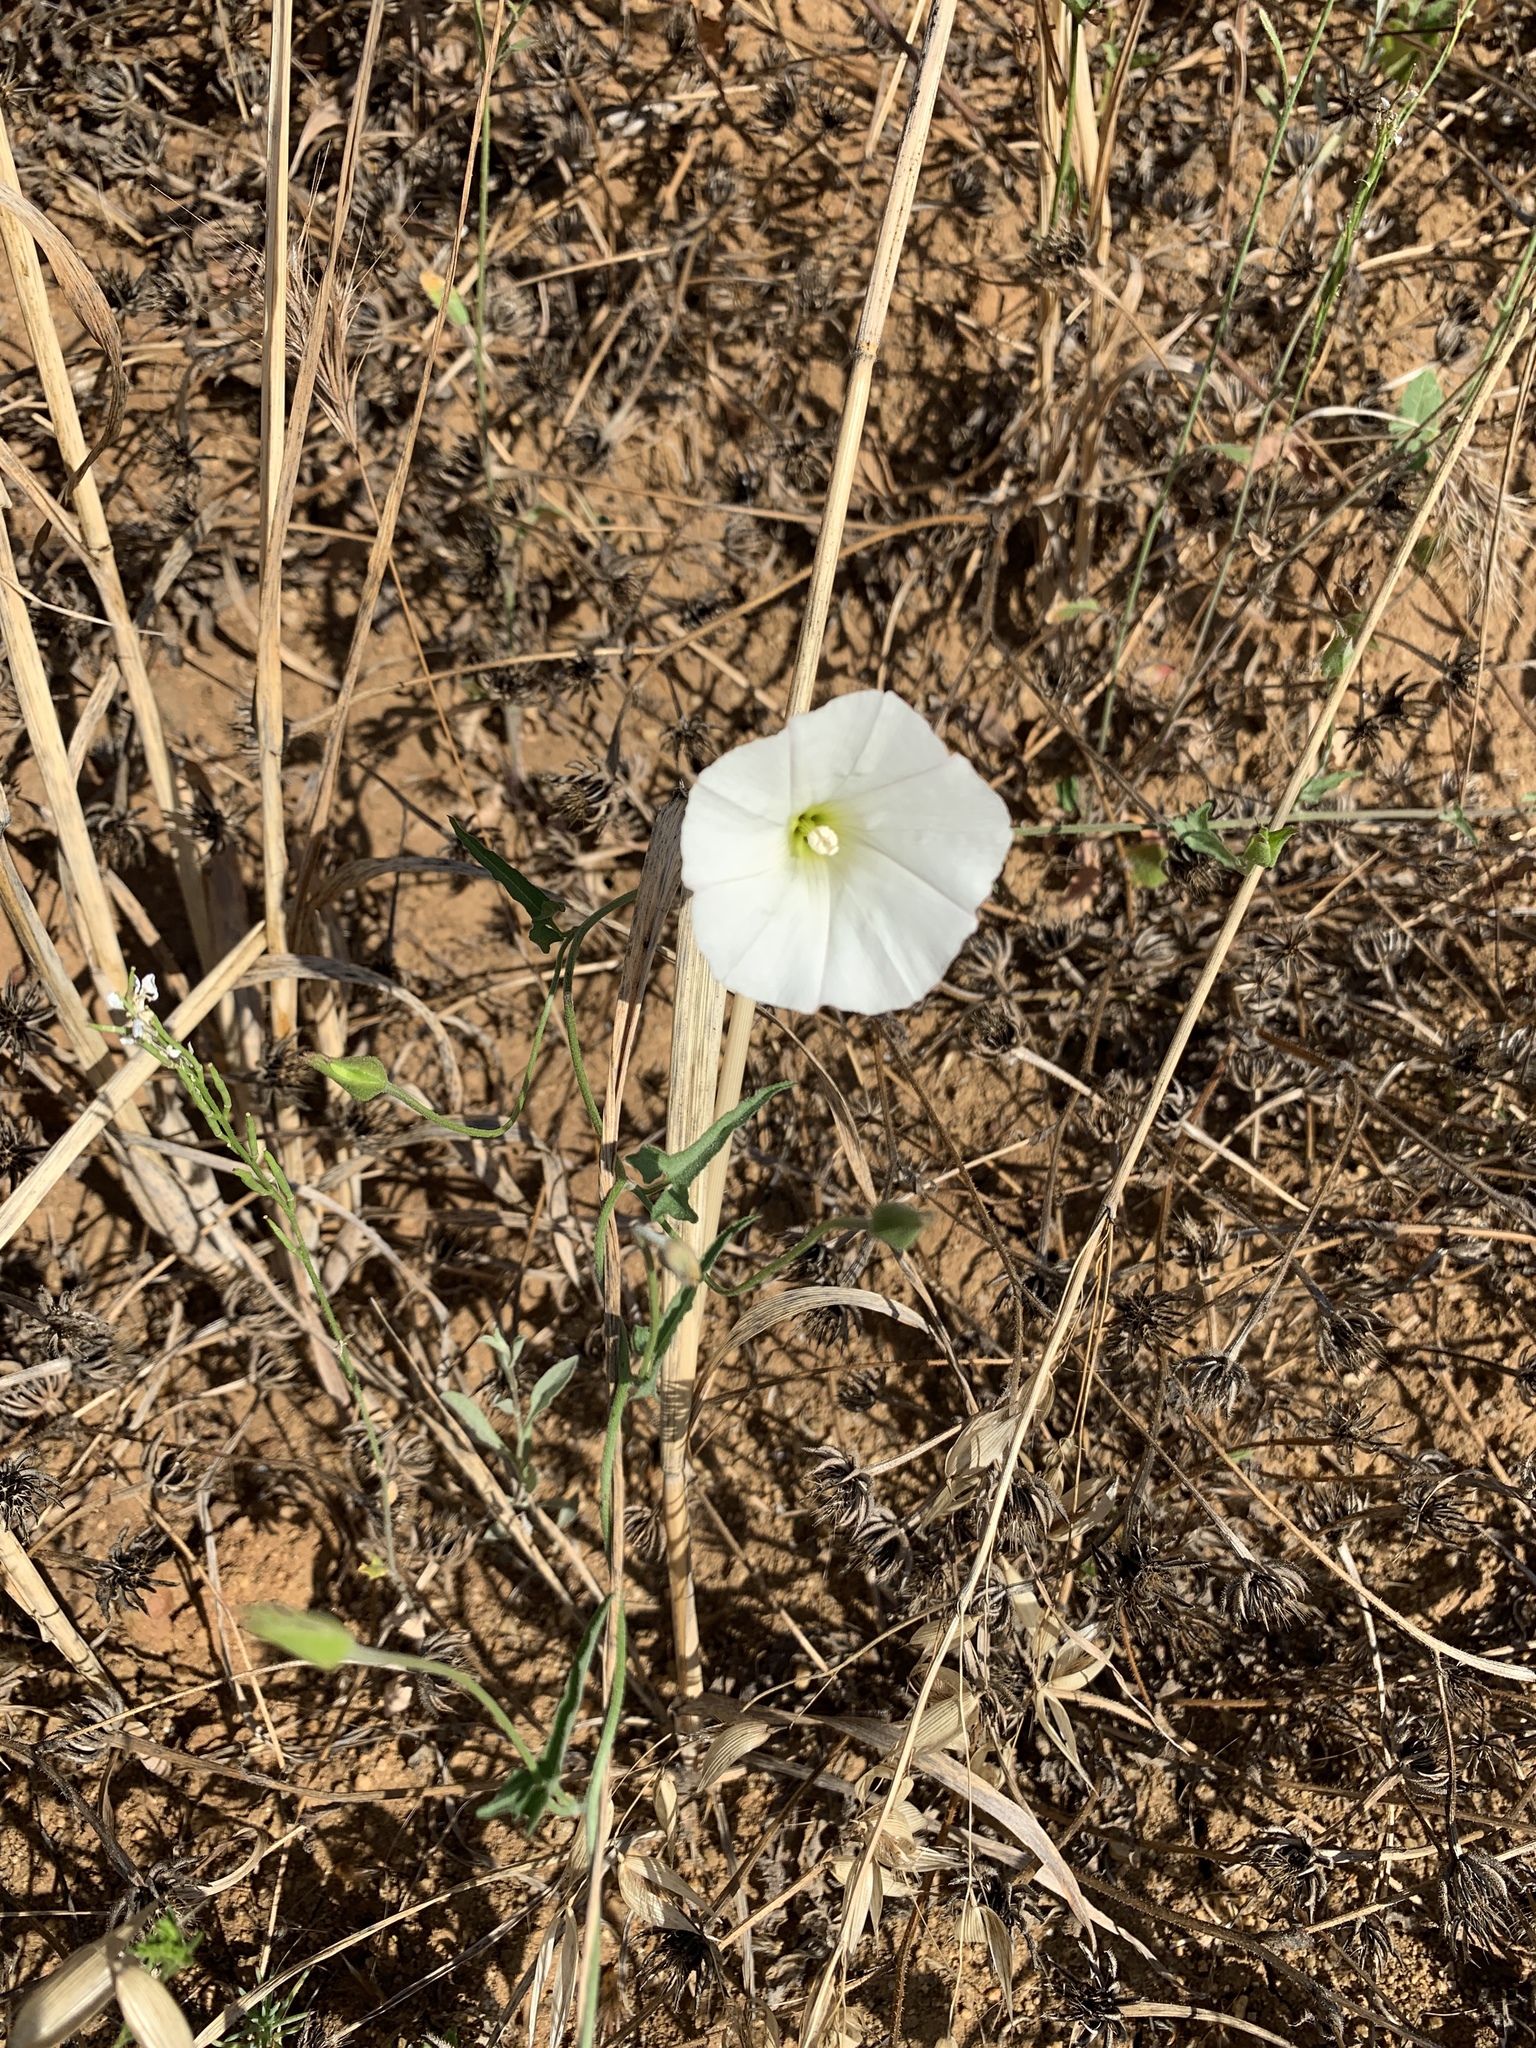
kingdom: Plantae
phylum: Tracheophyta
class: Magnoliopsida
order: Solanales
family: Convolvulaceae
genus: Calystegia
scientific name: Calystegia macrostegia
